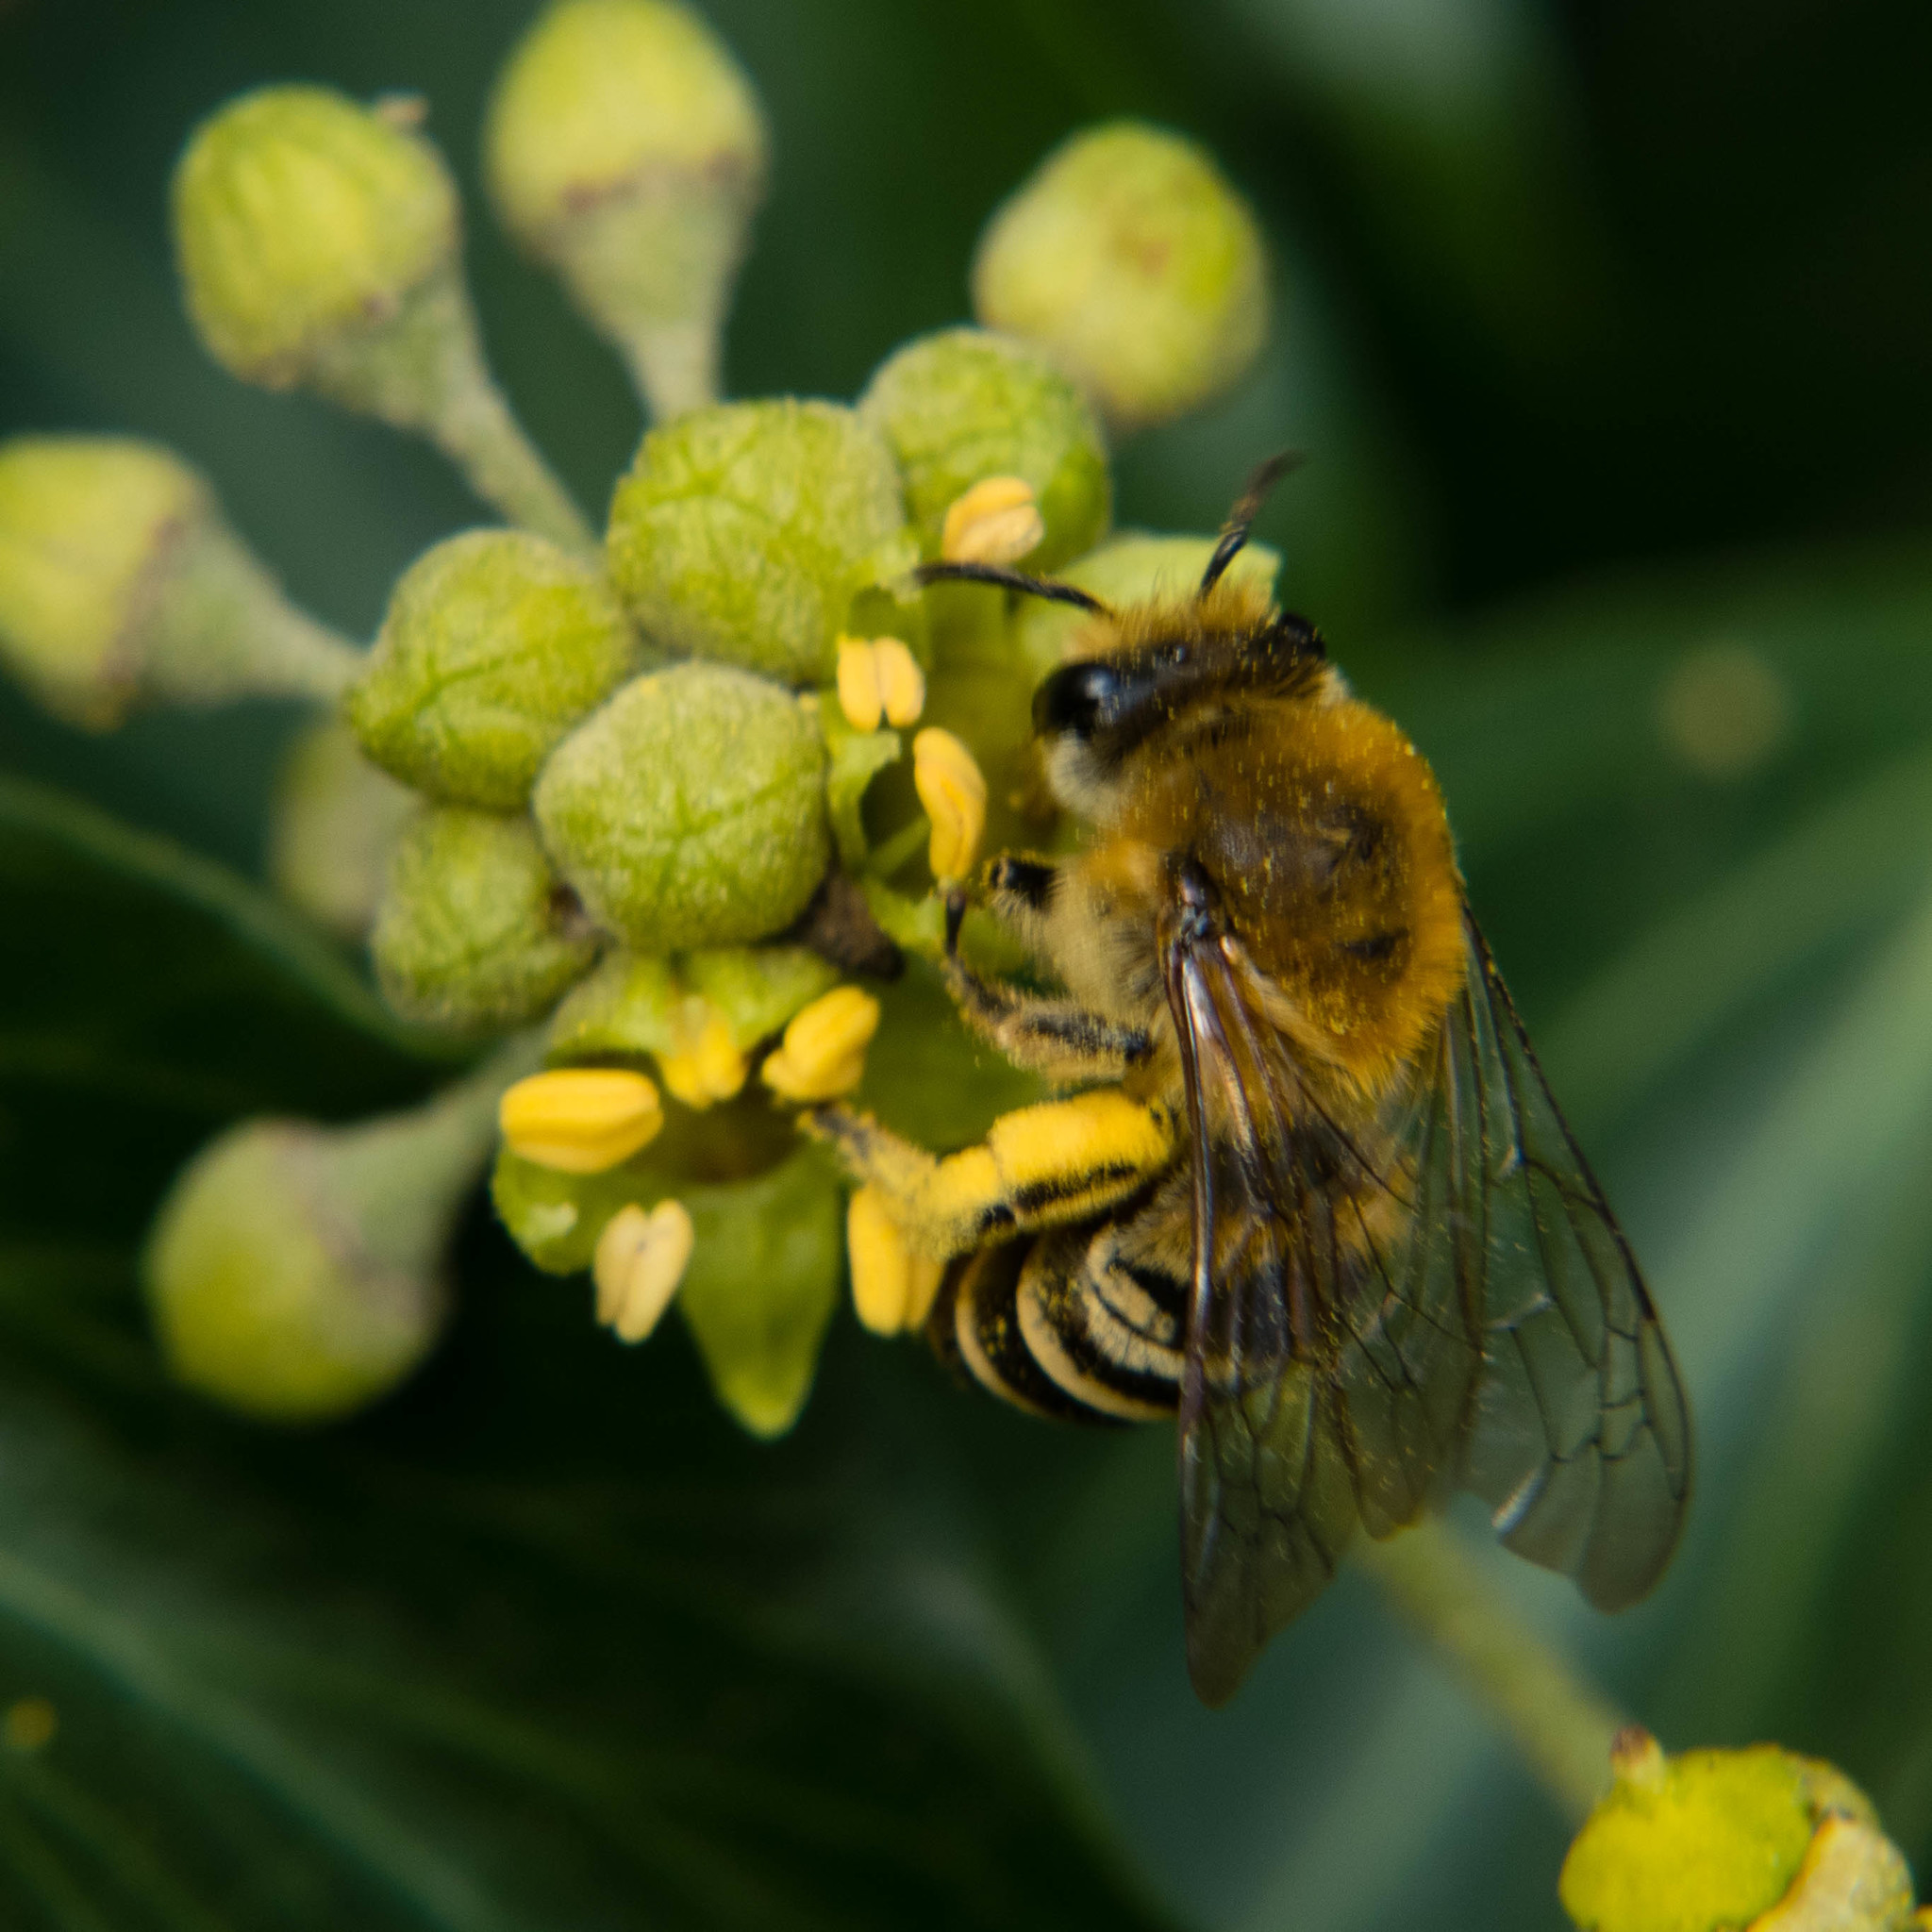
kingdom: Animalia
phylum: Arthropoda
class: Insecta
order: Hymenoptera
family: Colletidae
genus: Colletes
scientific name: Colletes hederae
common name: Ivy bee
